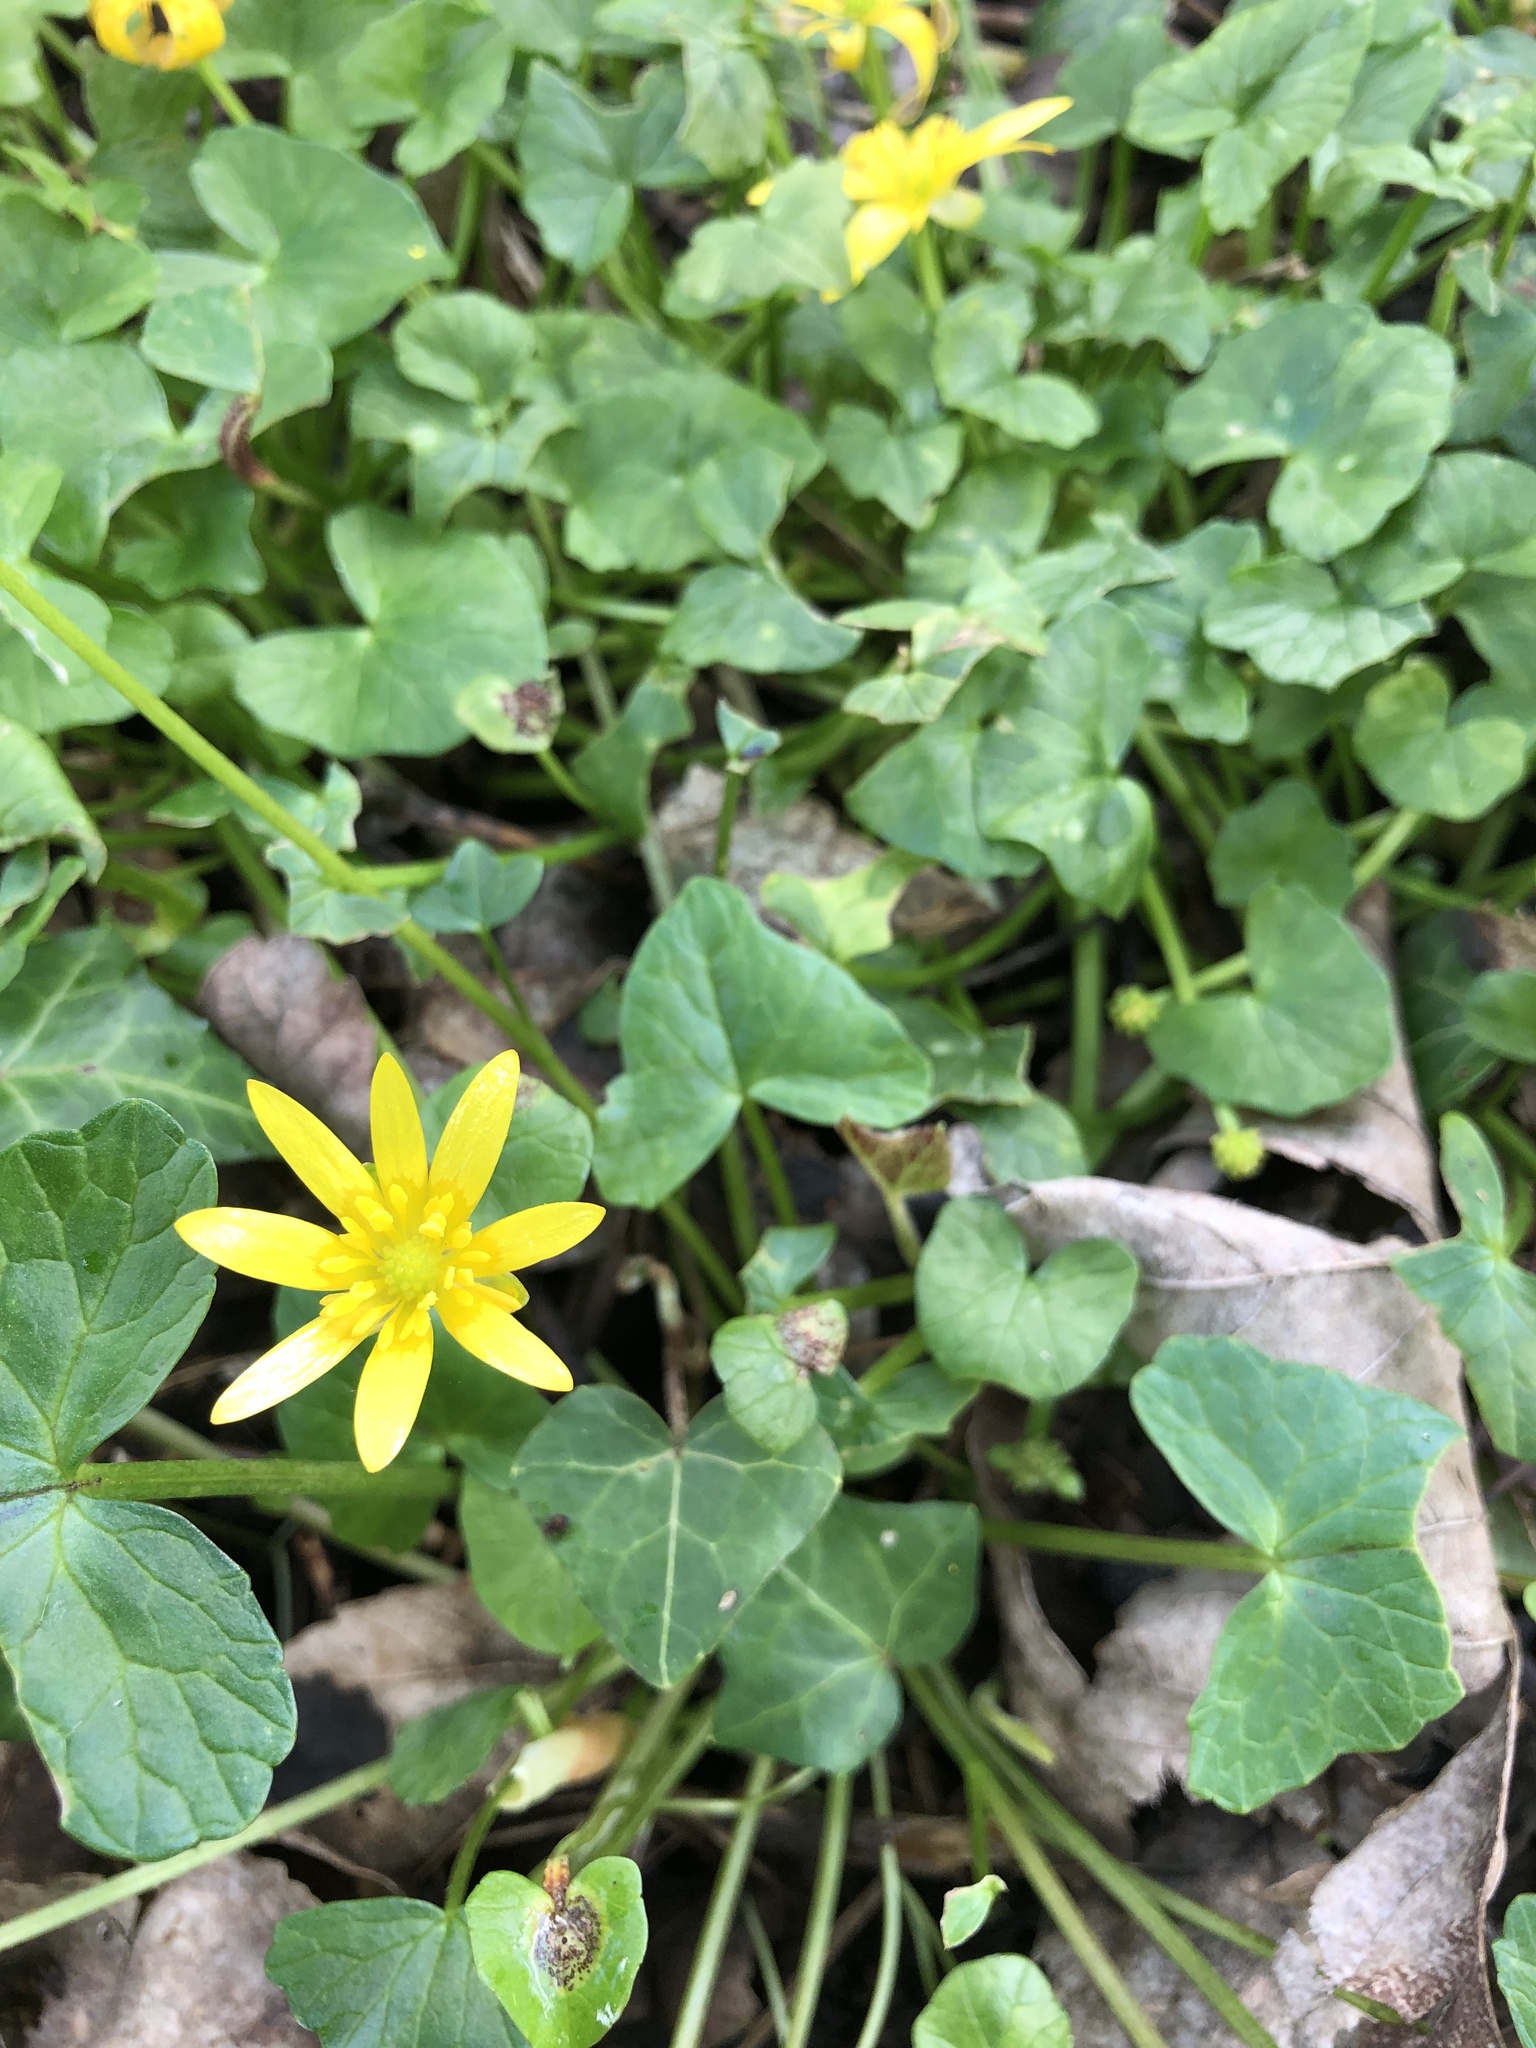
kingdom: Plantae
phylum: Tracheophyta
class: Magnoliopsida
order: Ranunculales
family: Ranunculaceae
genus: Ficaria
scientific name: Ficaria verna
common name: Lesser celandine
